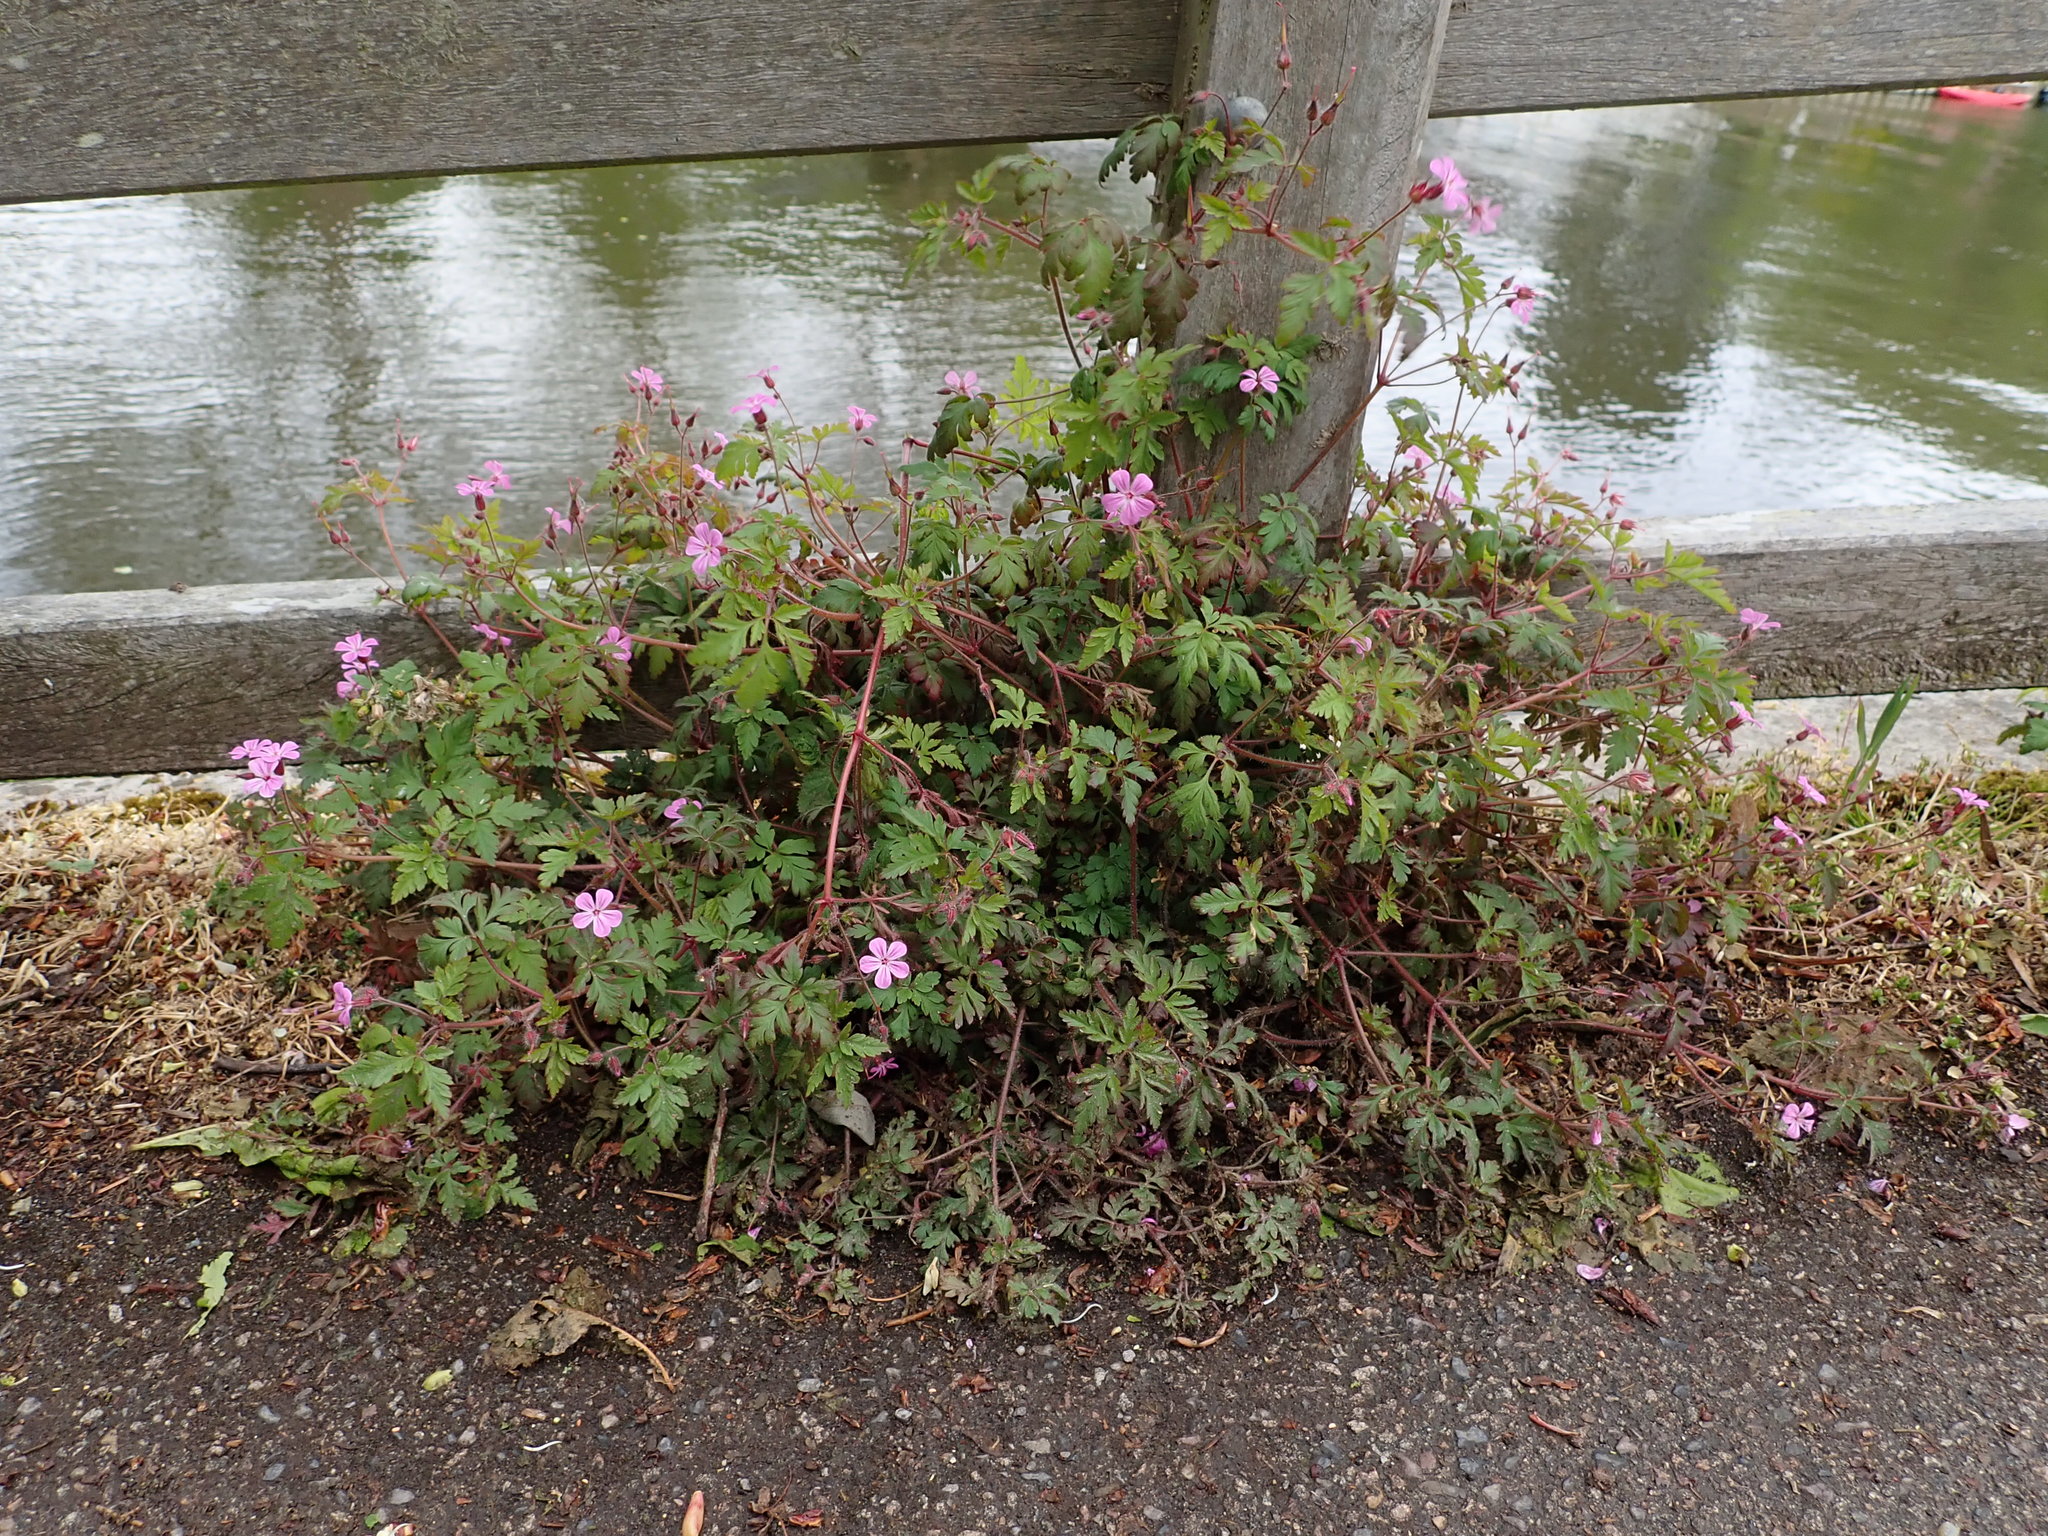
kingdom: Plantae
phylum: Tracheophyta
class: Magnoliopsida
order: Geraniales
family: Geraniaceae
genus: Geranium
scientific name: Geranium robertianum
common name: Herb-robert
